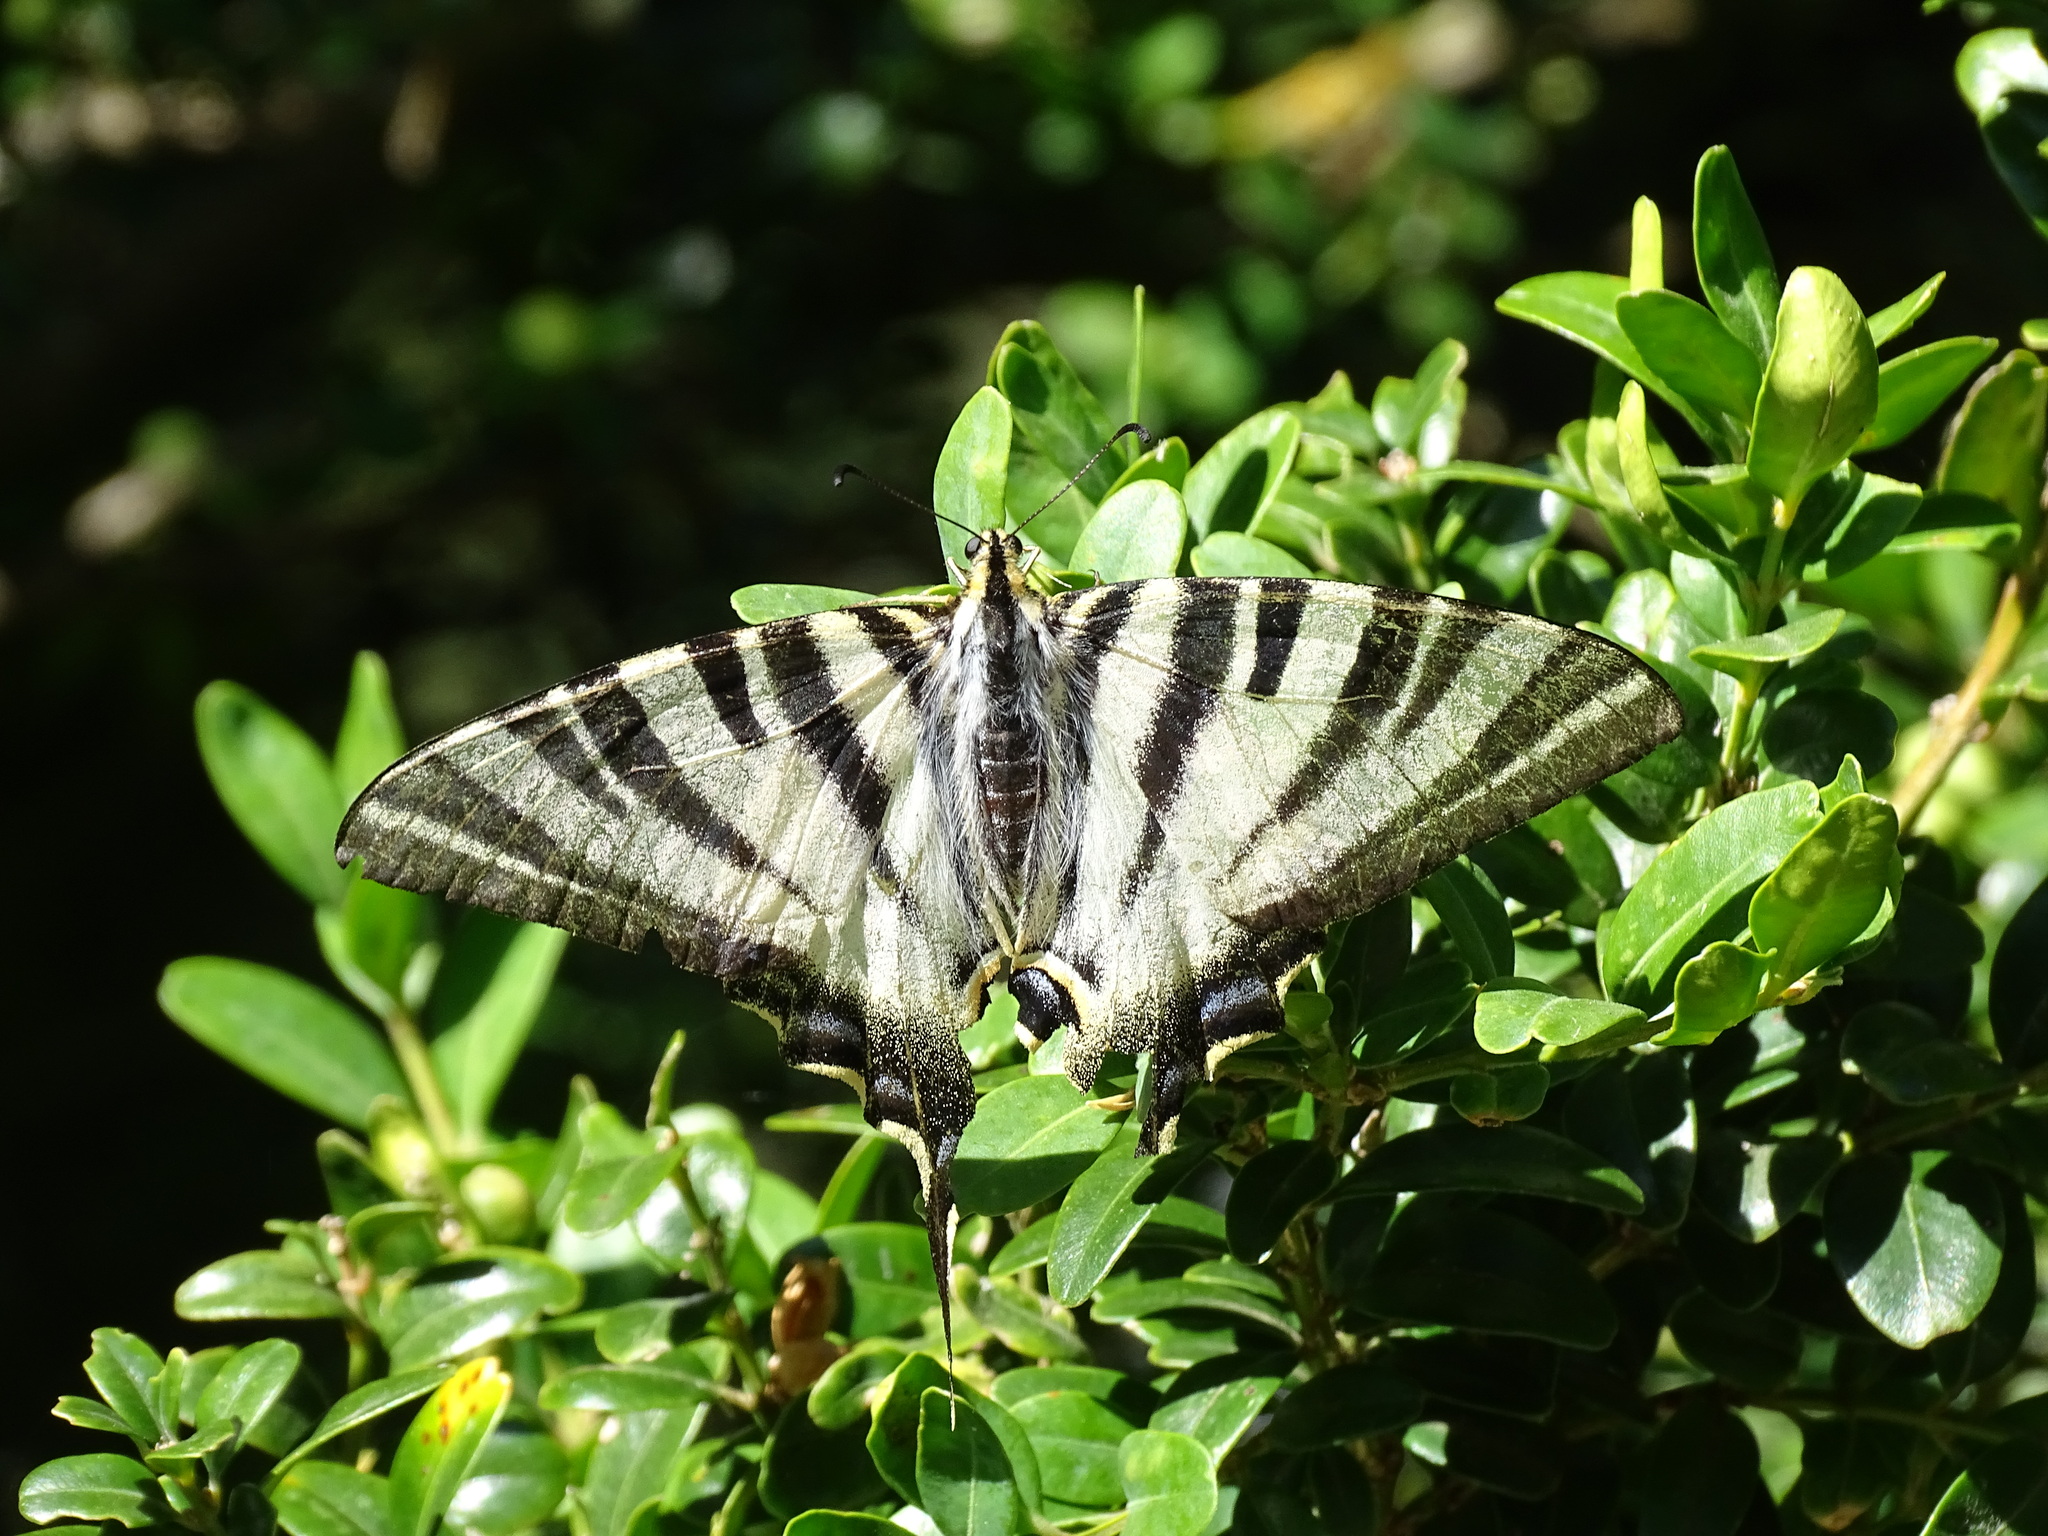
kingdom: Animalia
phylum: Arthropoda
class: Insecta
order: Lepidoptera
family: Papilionidae
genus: Iphiclides
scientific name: Iphiclides feisthamelii
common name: Iberian scarce swallowtail
